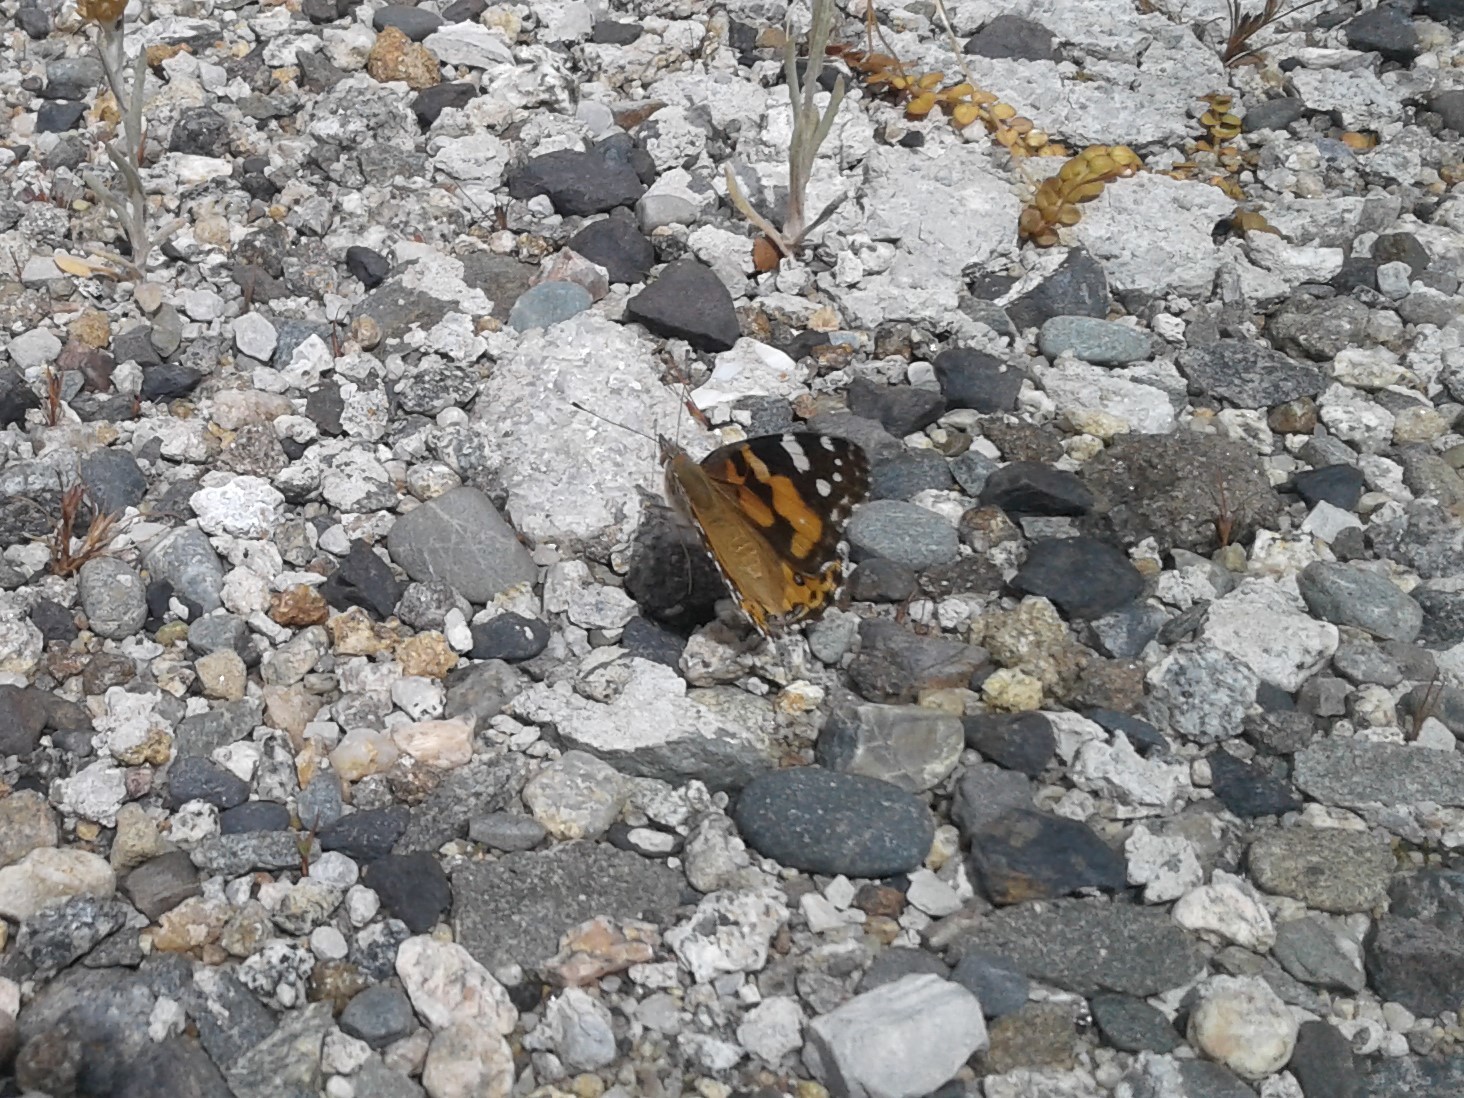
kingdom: Animalia
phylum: Arthropoda
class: Insecta
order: Lepidoptera
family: Nymphalidae
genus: Vanessa
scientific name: Vanessa kershawi
